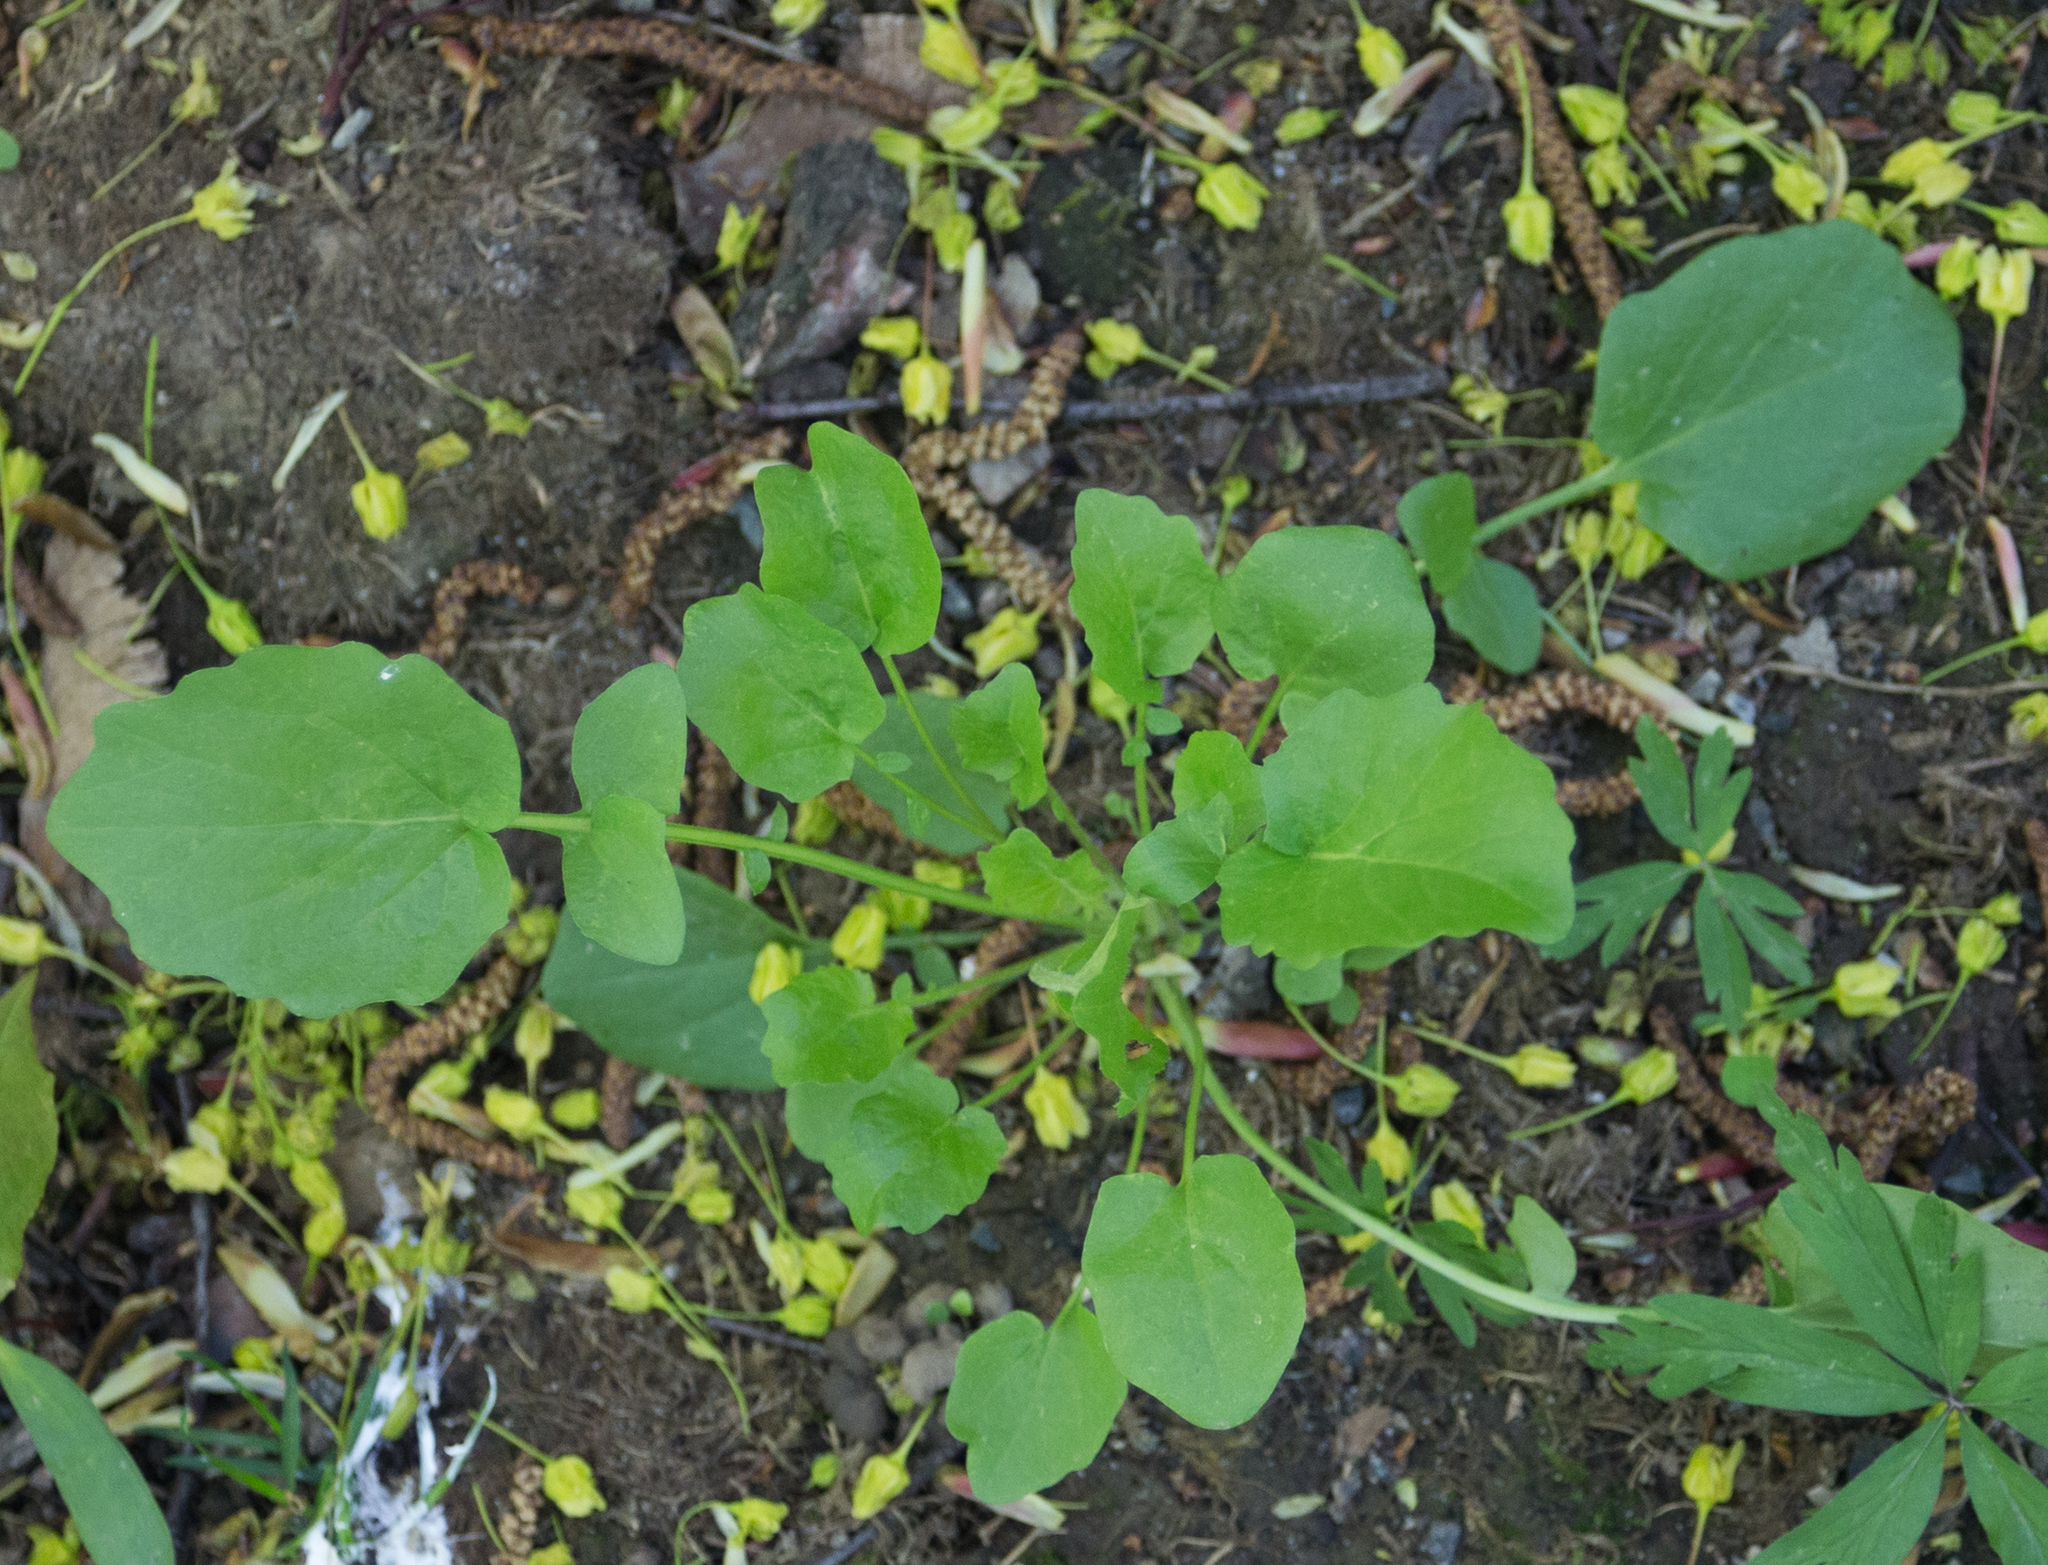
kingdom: Plantae
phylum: Tracheophyta
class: Magnoliopsida
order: Asterales
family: Asteraceae
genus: Lapsana
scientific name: Lapsana communis
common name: Nipplewort
